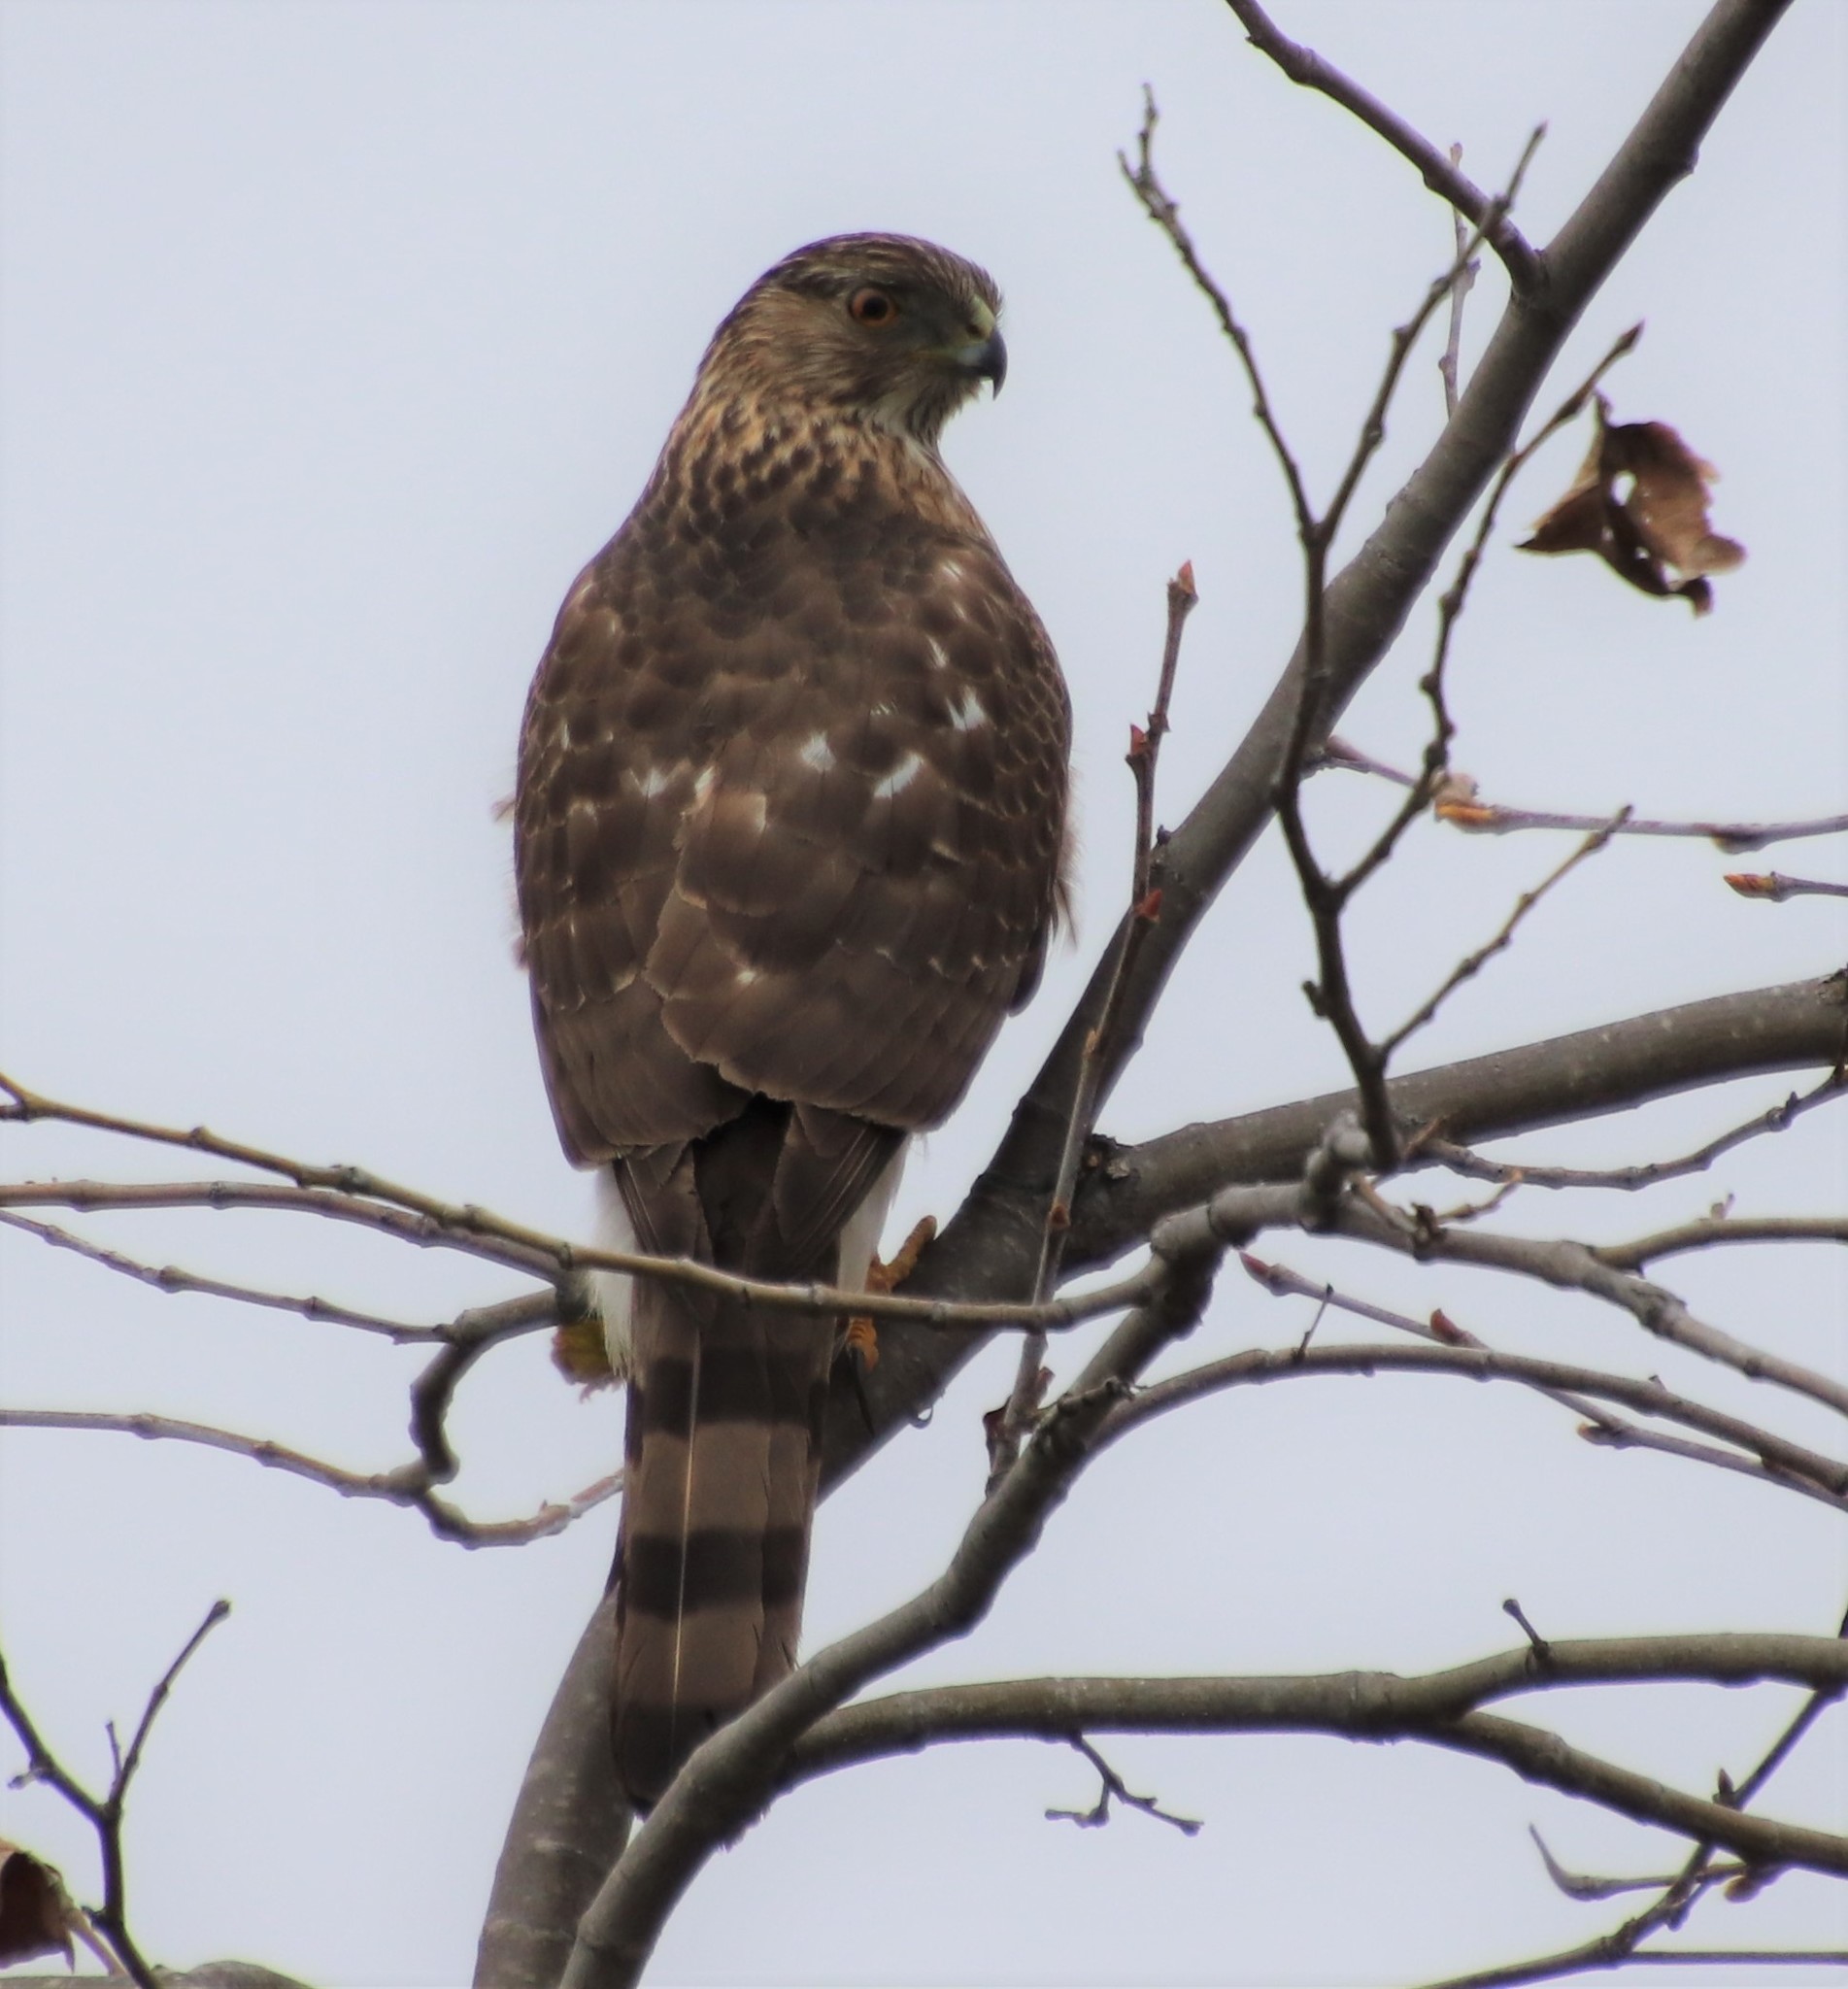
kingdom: Animalia
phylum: Chordata
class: Aves
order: Accipitriformes
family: Accipitridae
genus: Accipiter
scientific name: Accipiter cooperii
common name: Cooper's hawk
